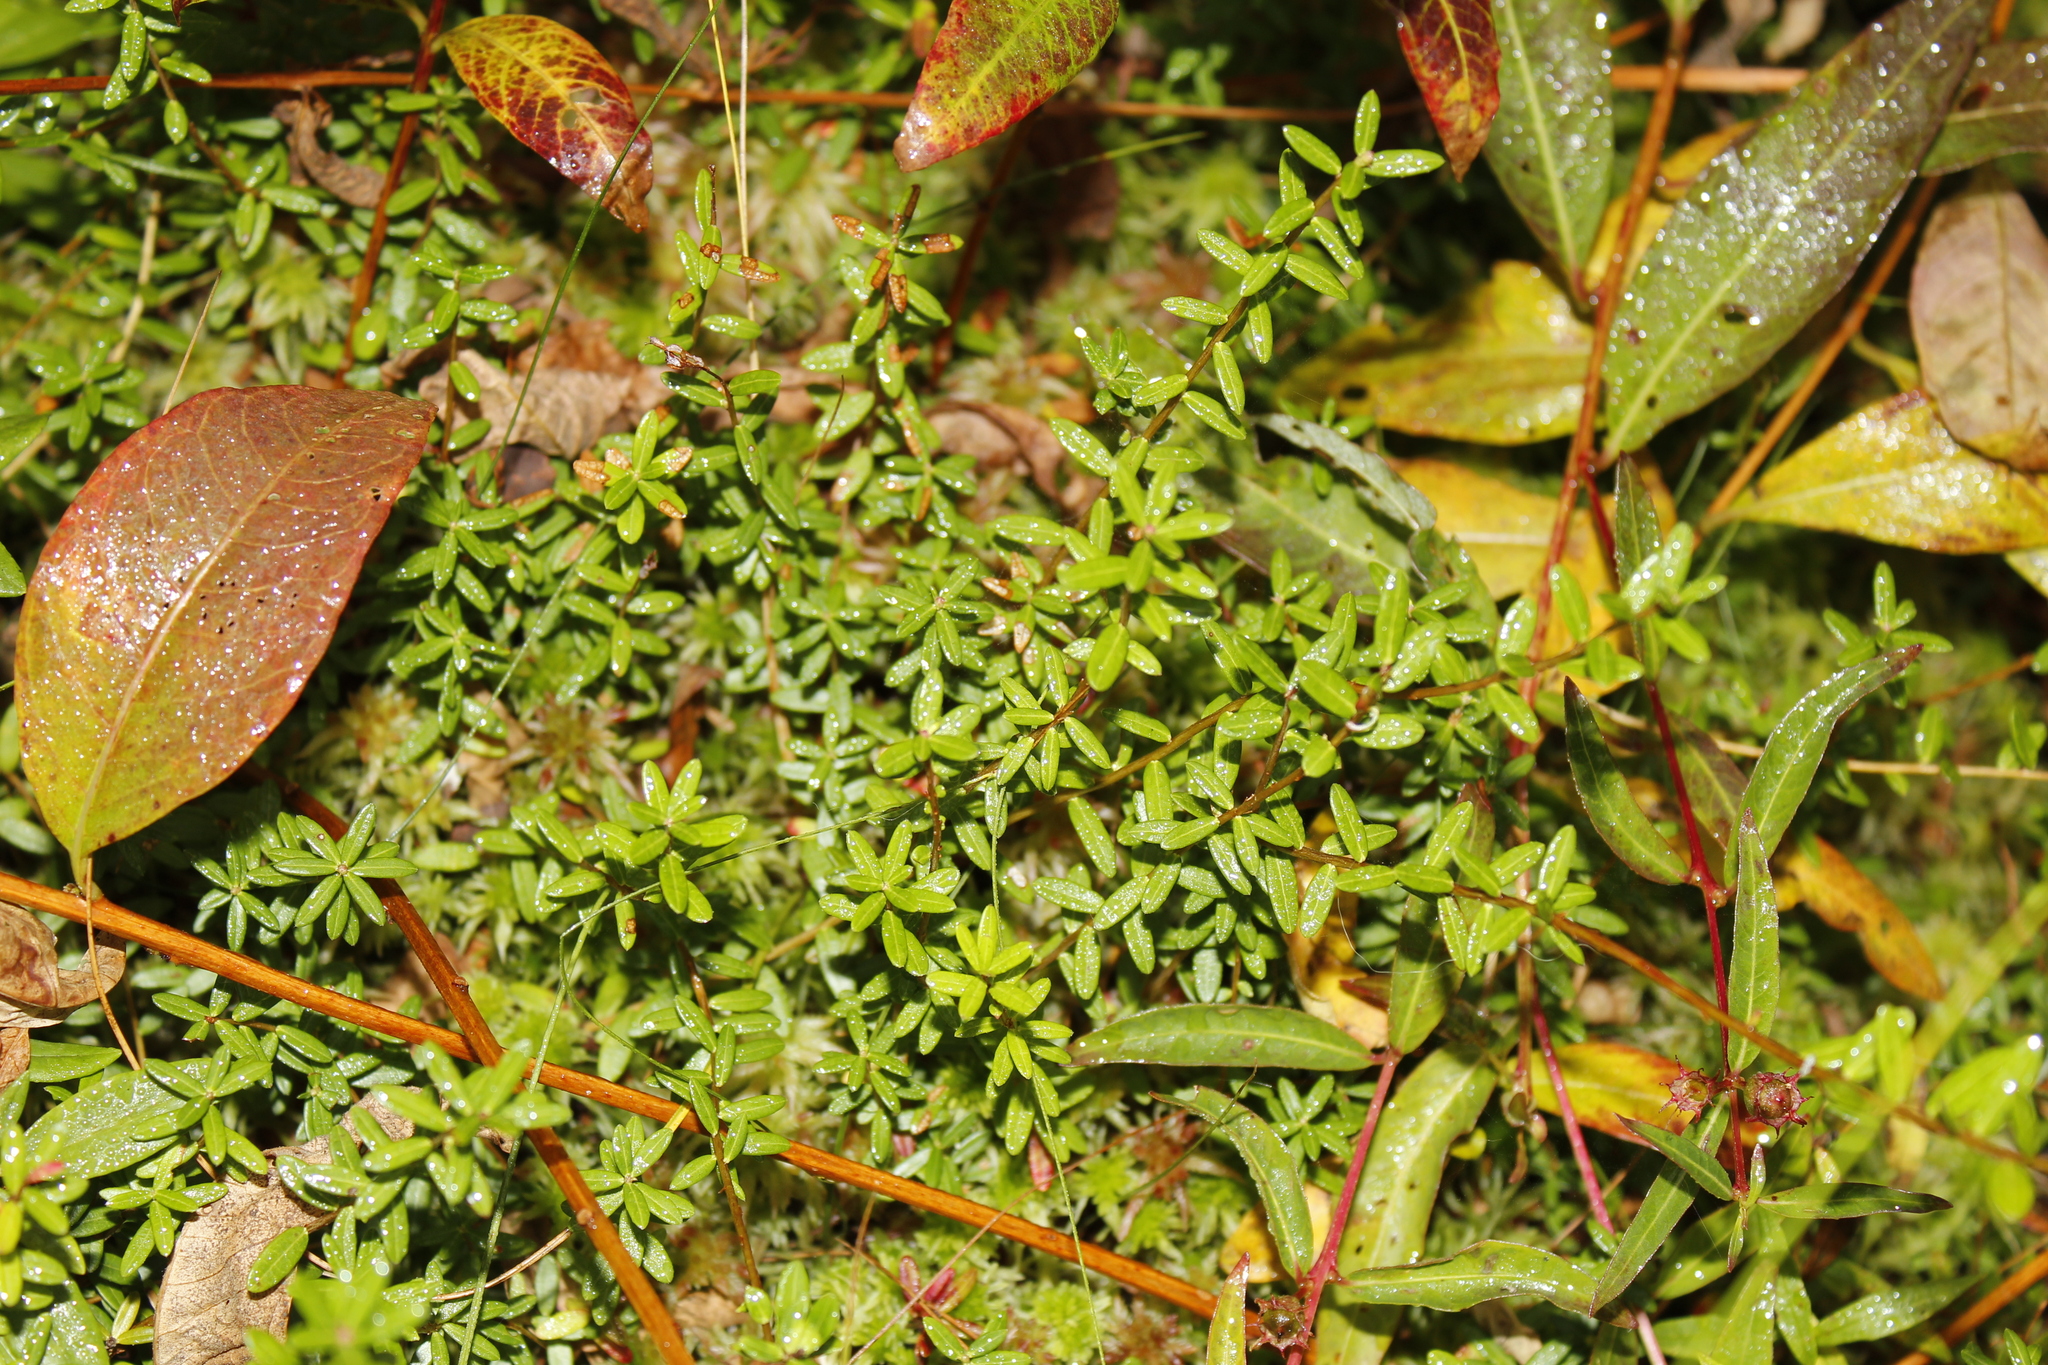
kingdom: Plantae
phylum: Tracheophyta
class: Magnoliopsida
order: Ericales
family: Ericaceae
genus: Vaccinium
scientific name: Vaccinium macrocarpon
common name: American cranberry
